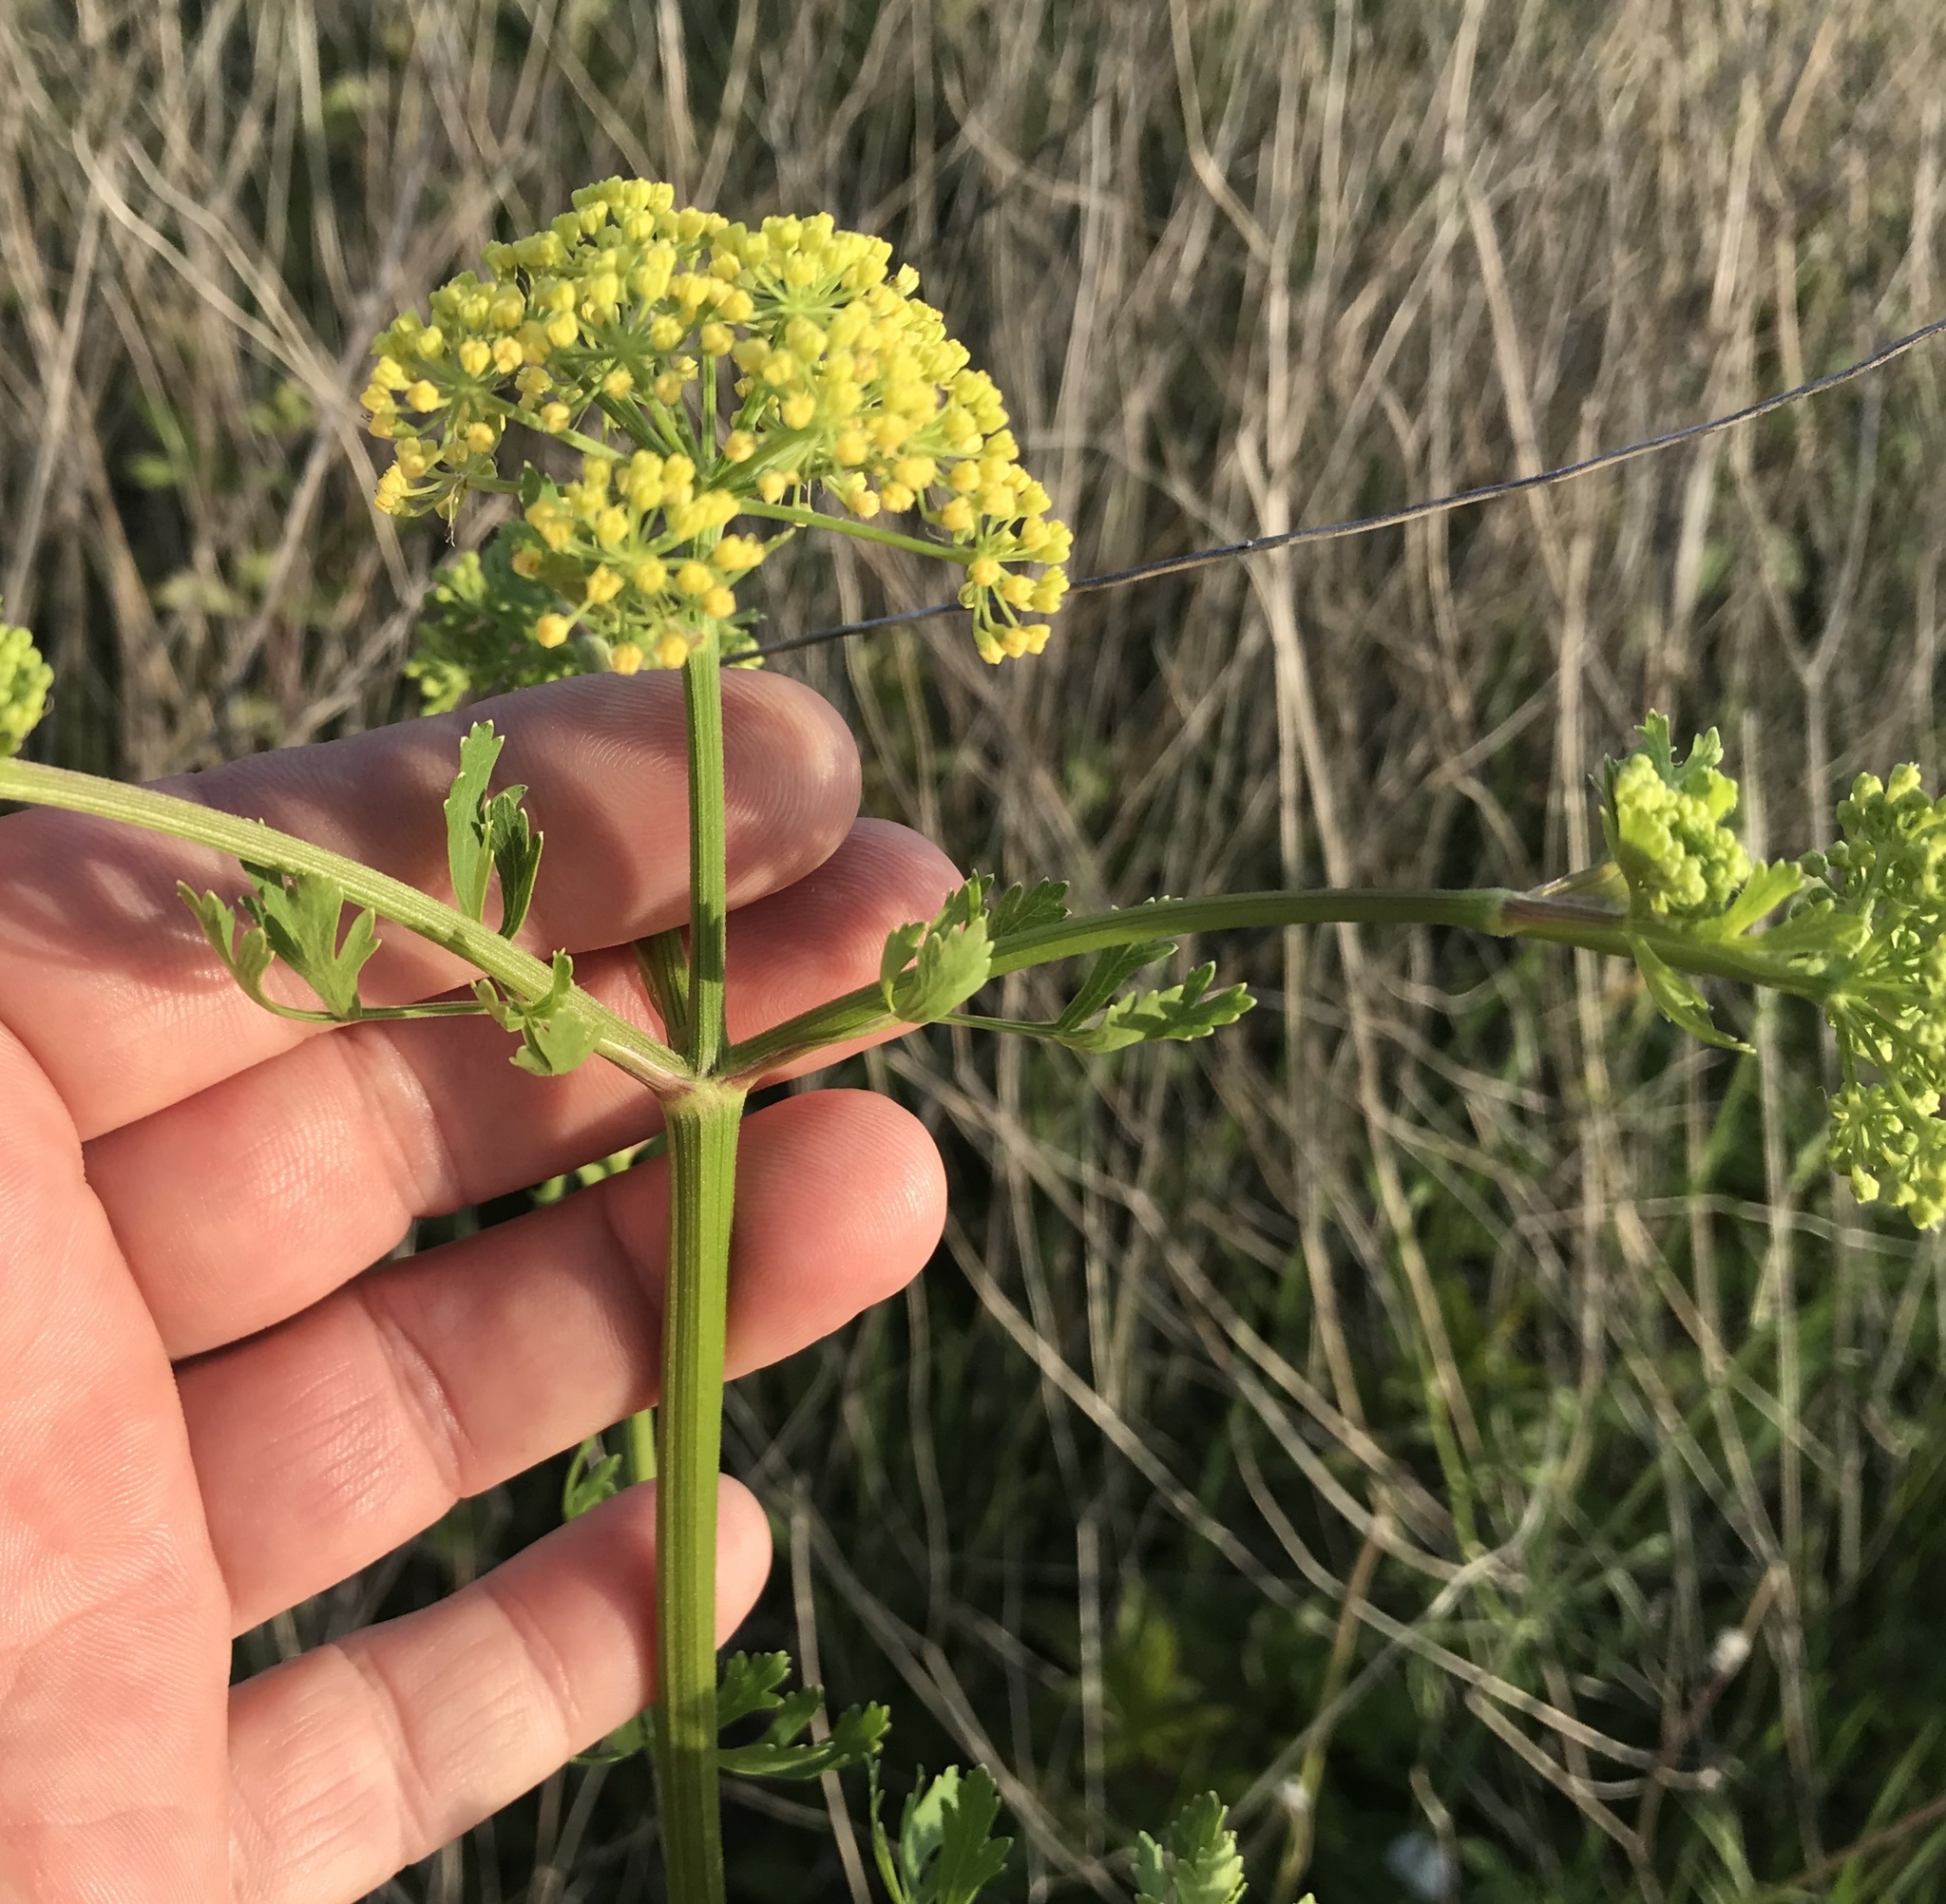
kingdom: Plantae
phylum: Tracheophyta
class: Magnoliopsida
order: Apiales
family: Apiaceae
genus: Polytaenia
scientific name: Polytaenia texana
